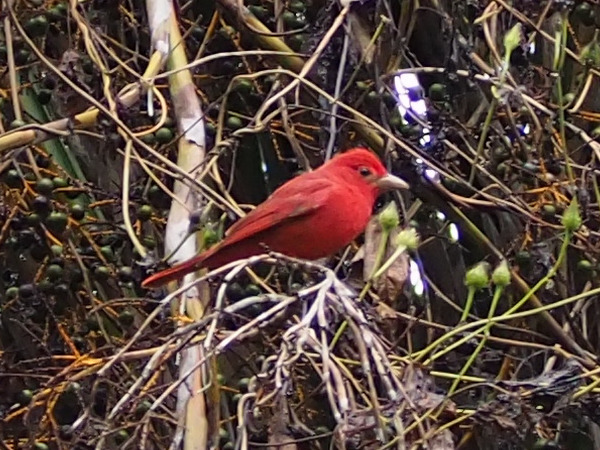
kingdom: Animalia
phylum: Chordata
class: Aves
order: Passeriformes
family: Cardinalidae
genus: Piranga
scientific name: Piranga rubra
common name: Summer tanager
